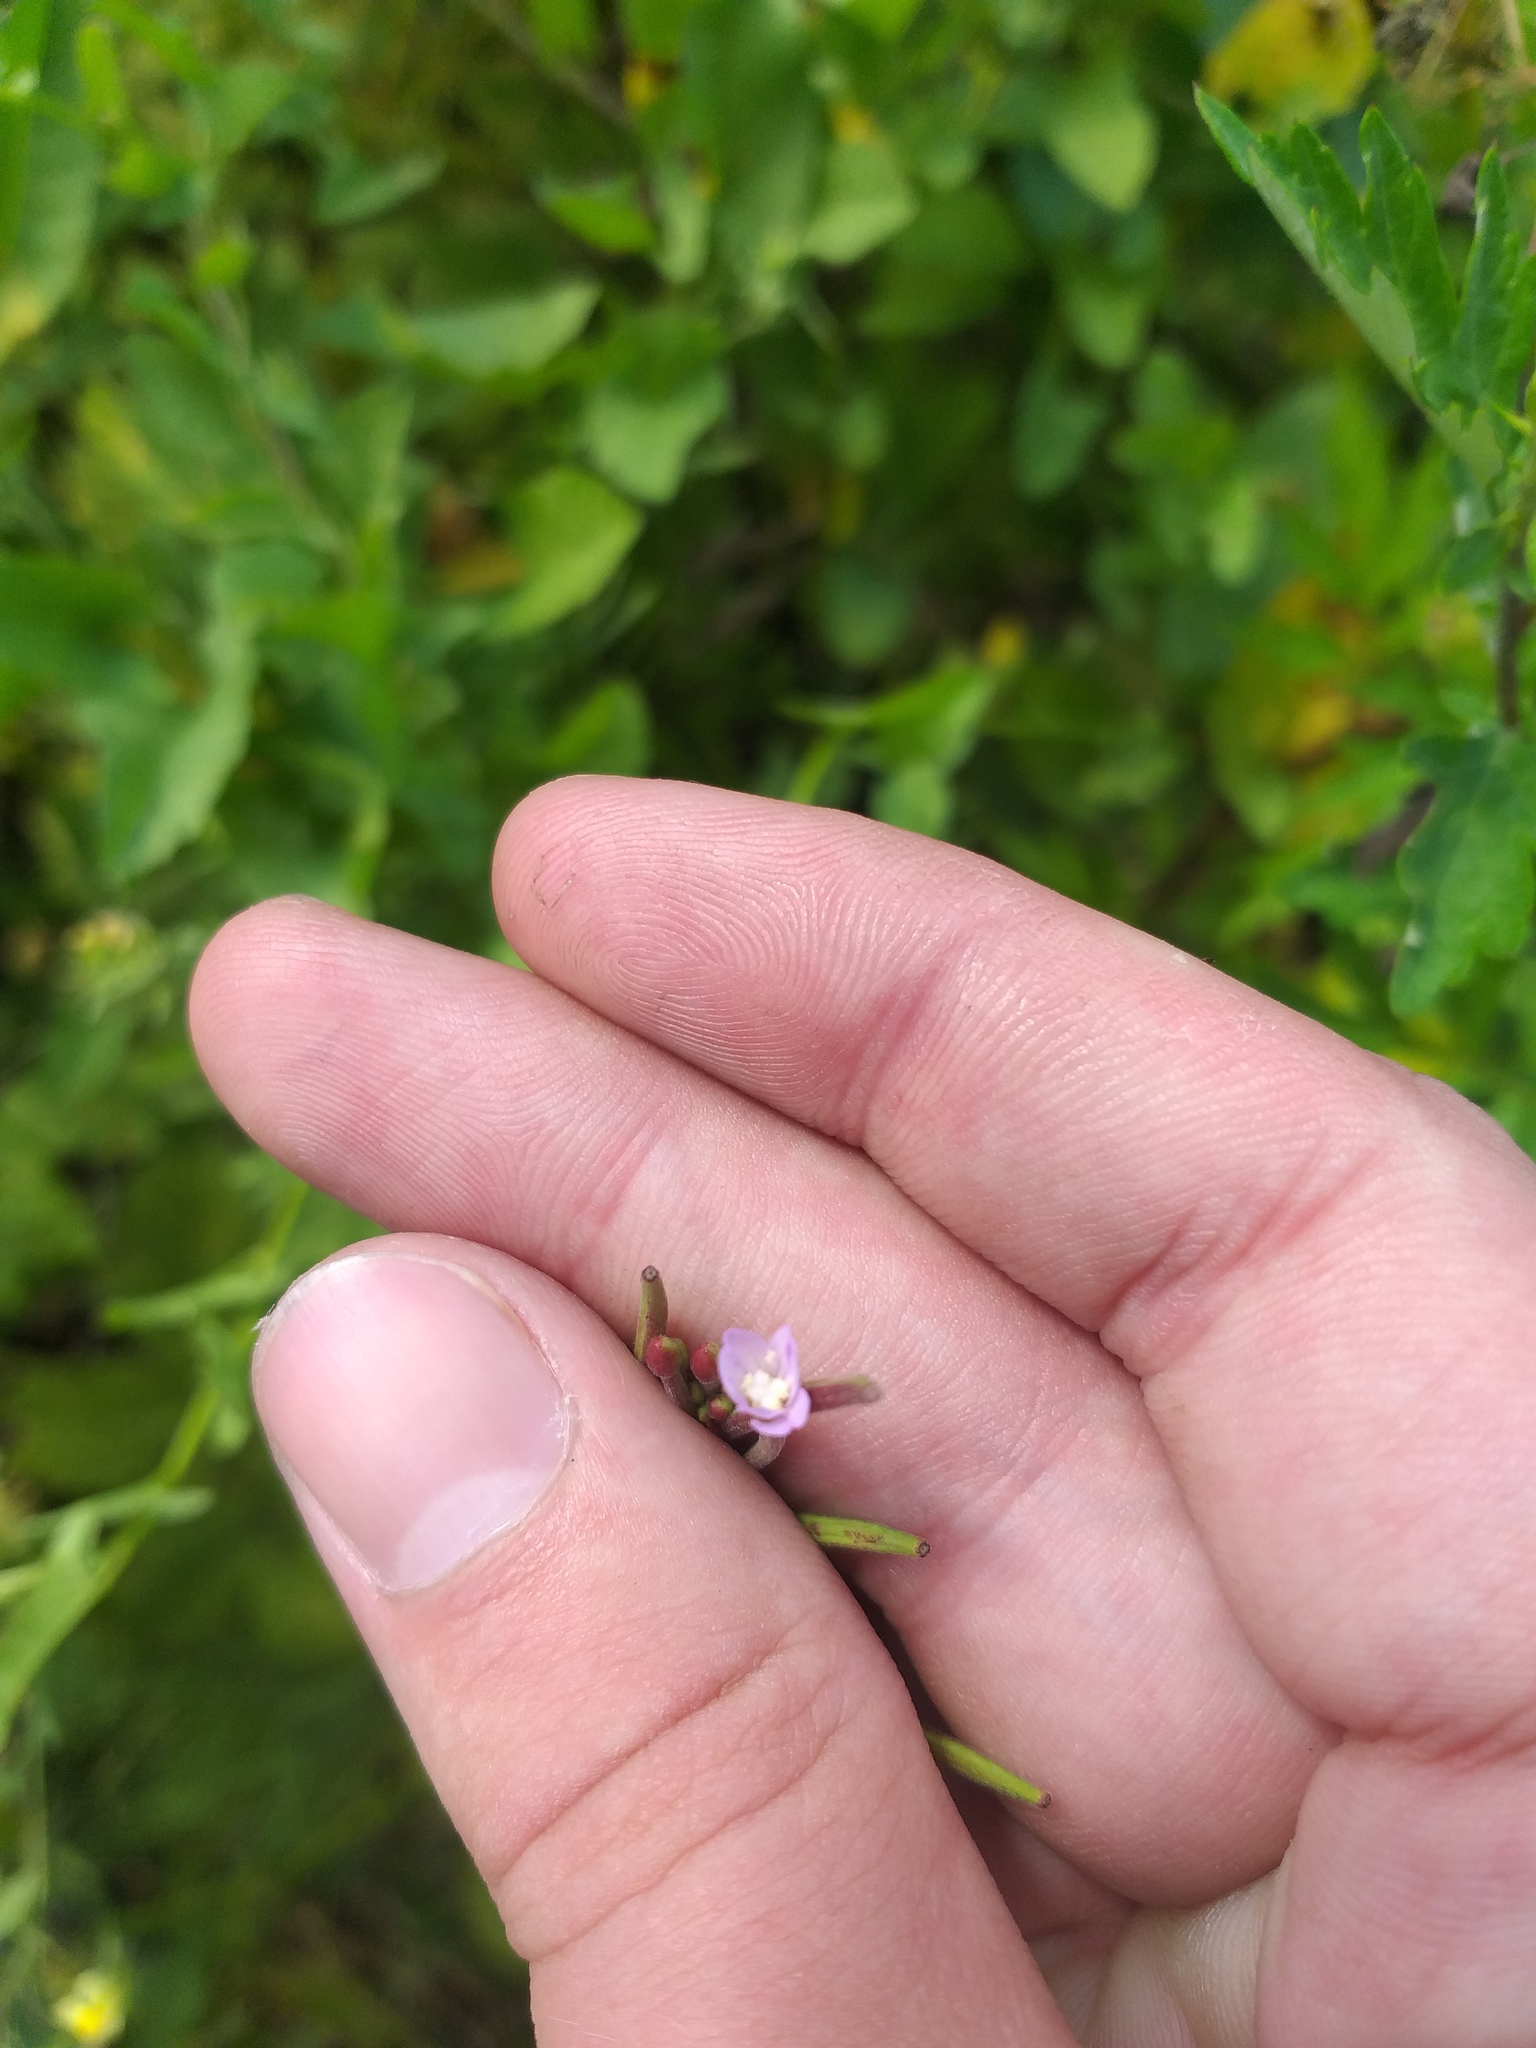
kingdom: Plantae
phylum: Tracheophyta
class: Magnoliopsida
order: Myrtales
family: Onagraceae
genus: Epilobium
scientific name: Epilobium montanum
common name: Broad-leaved willowherb
